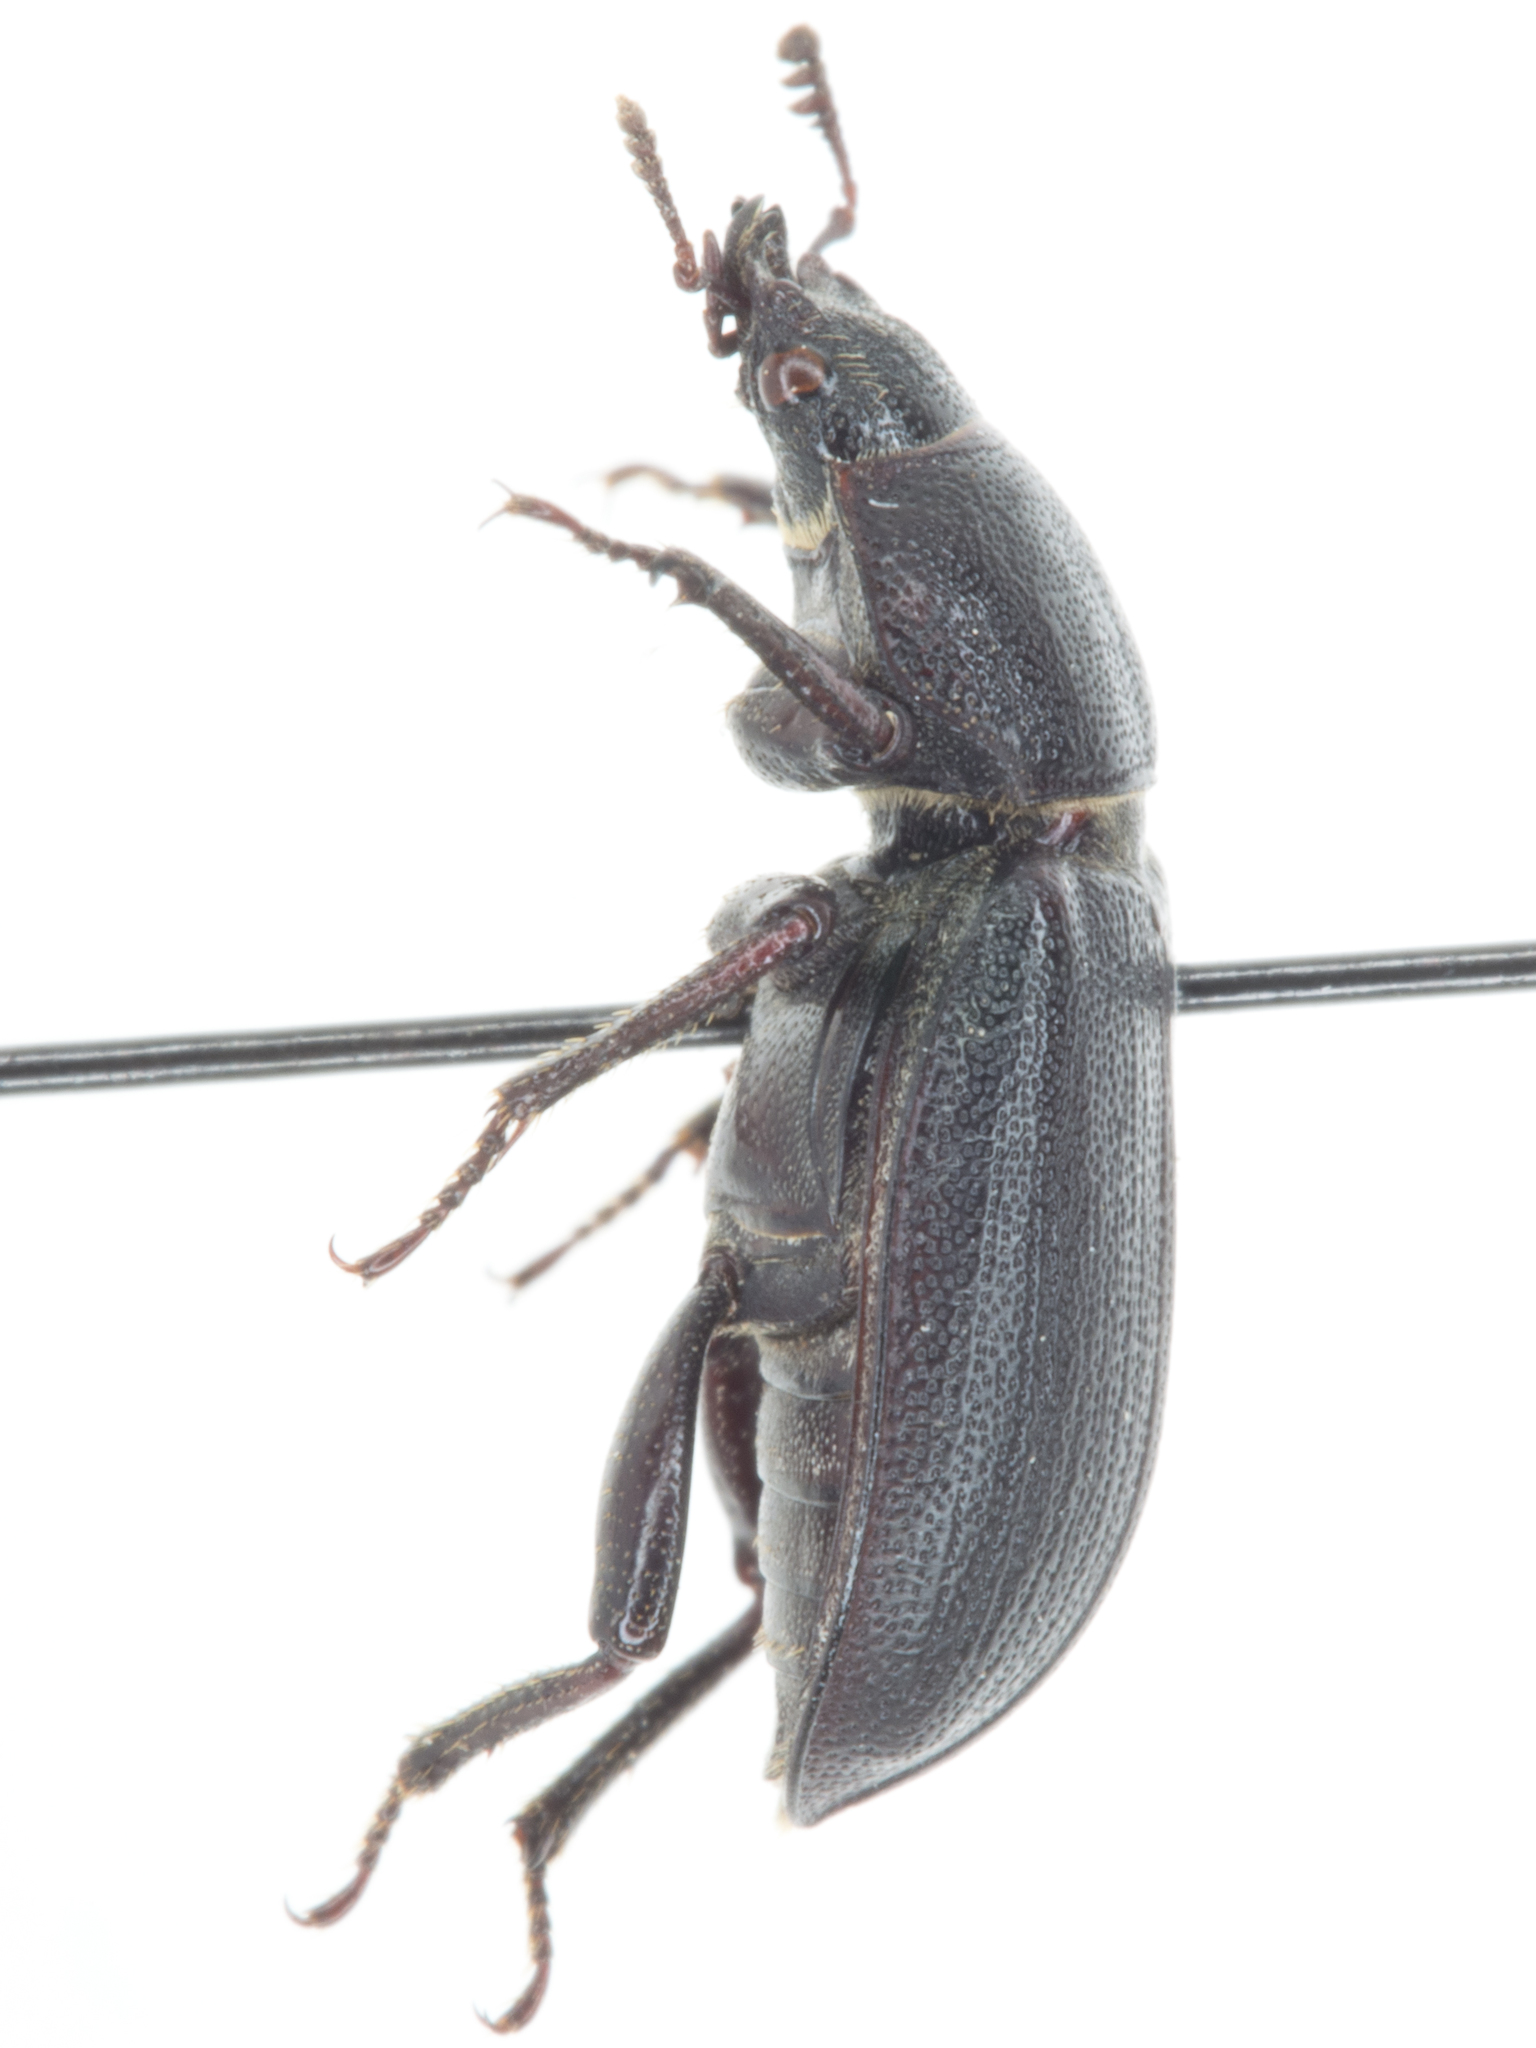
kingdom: Animalia
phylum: Arthropoda
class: Insecta
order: Coleoptera
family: Lucanidae
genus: Platycerus
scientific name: Platycerus marginalis
